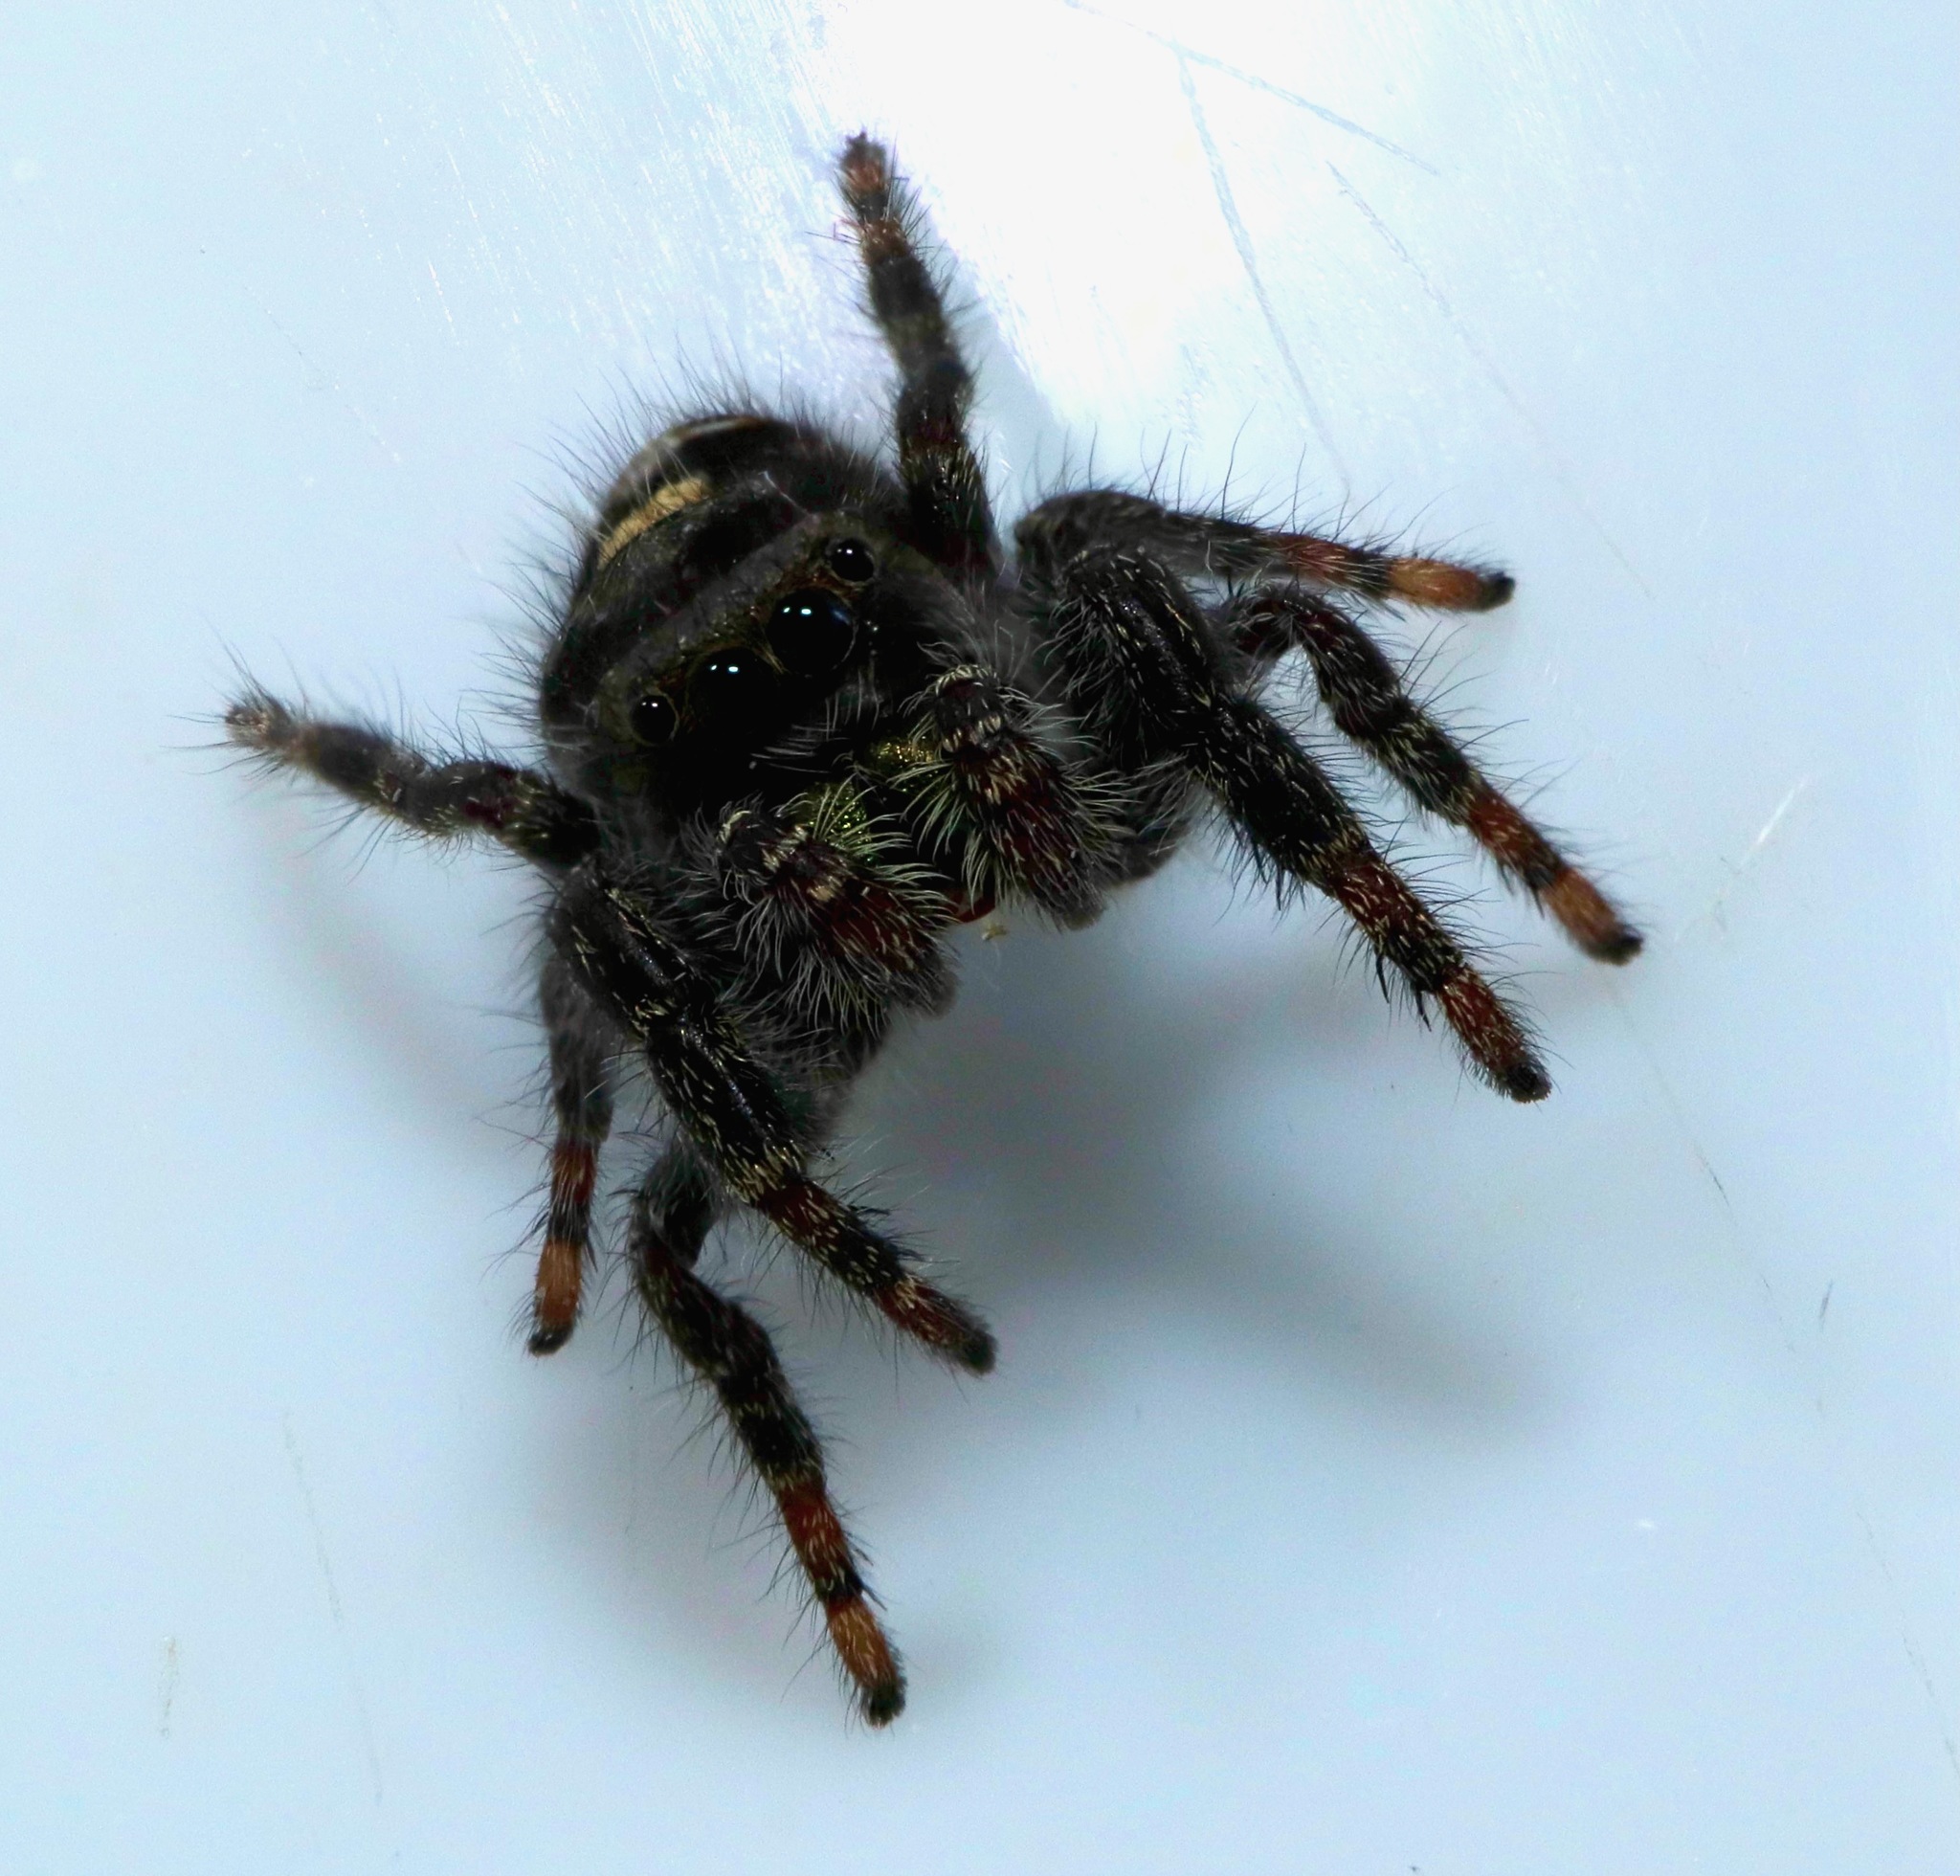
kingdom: Animalia
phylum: Arthropoda
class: Arachnida
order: Araneae
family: Salticidae
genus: Phidippus
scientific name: Phidippus audax
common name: Bold jumper
